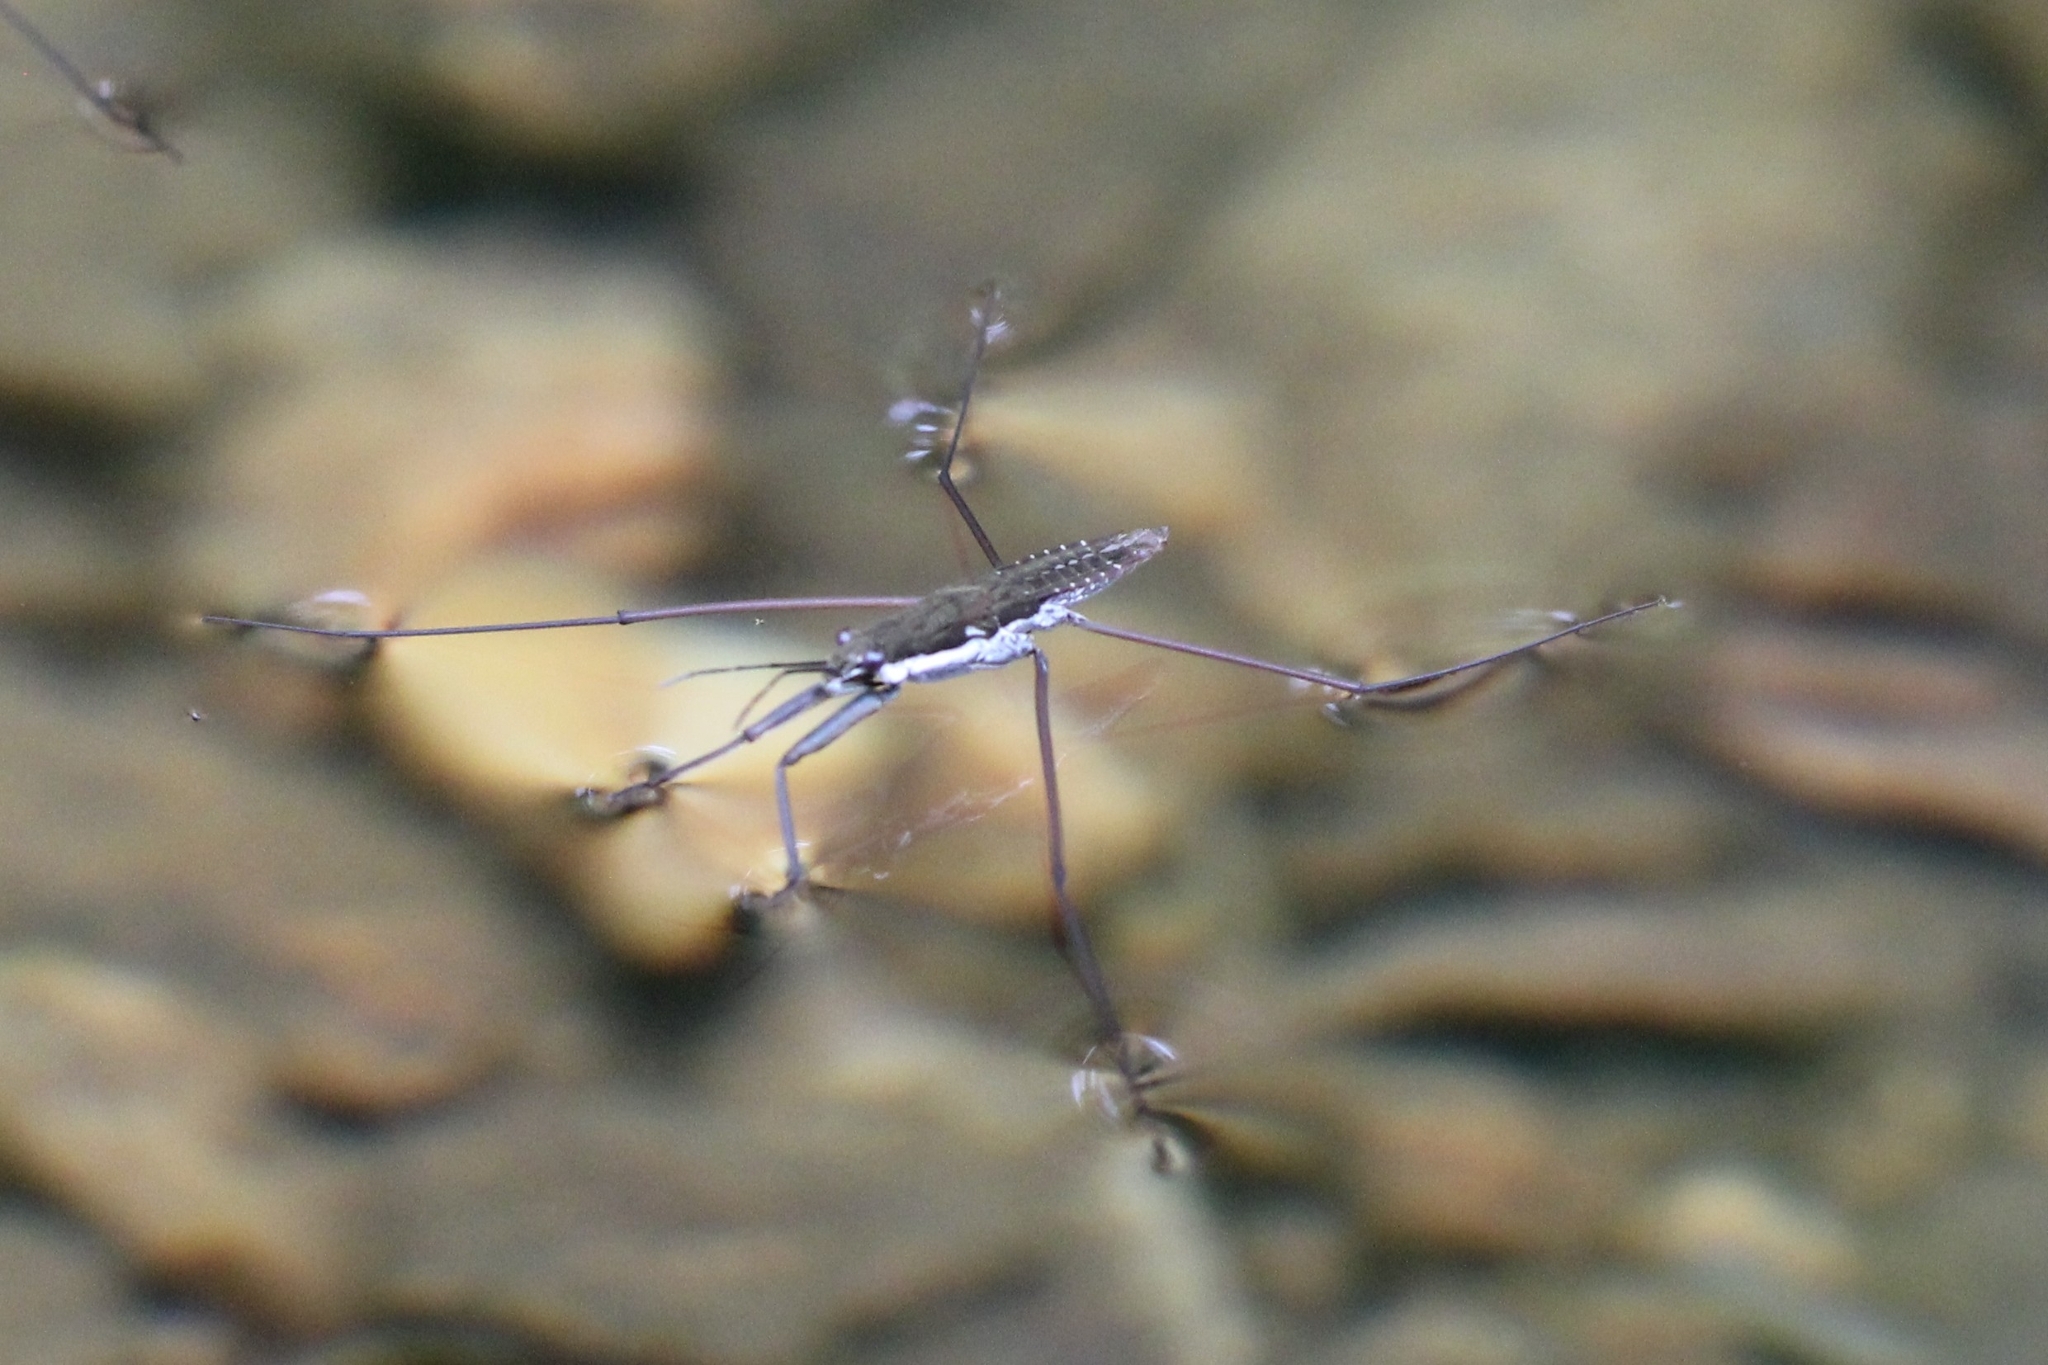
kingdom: Animalia
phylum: Arthropoda
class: Insecta
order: Hemiptera
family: Gerridae
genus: Aquarius
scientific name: Aquarius
